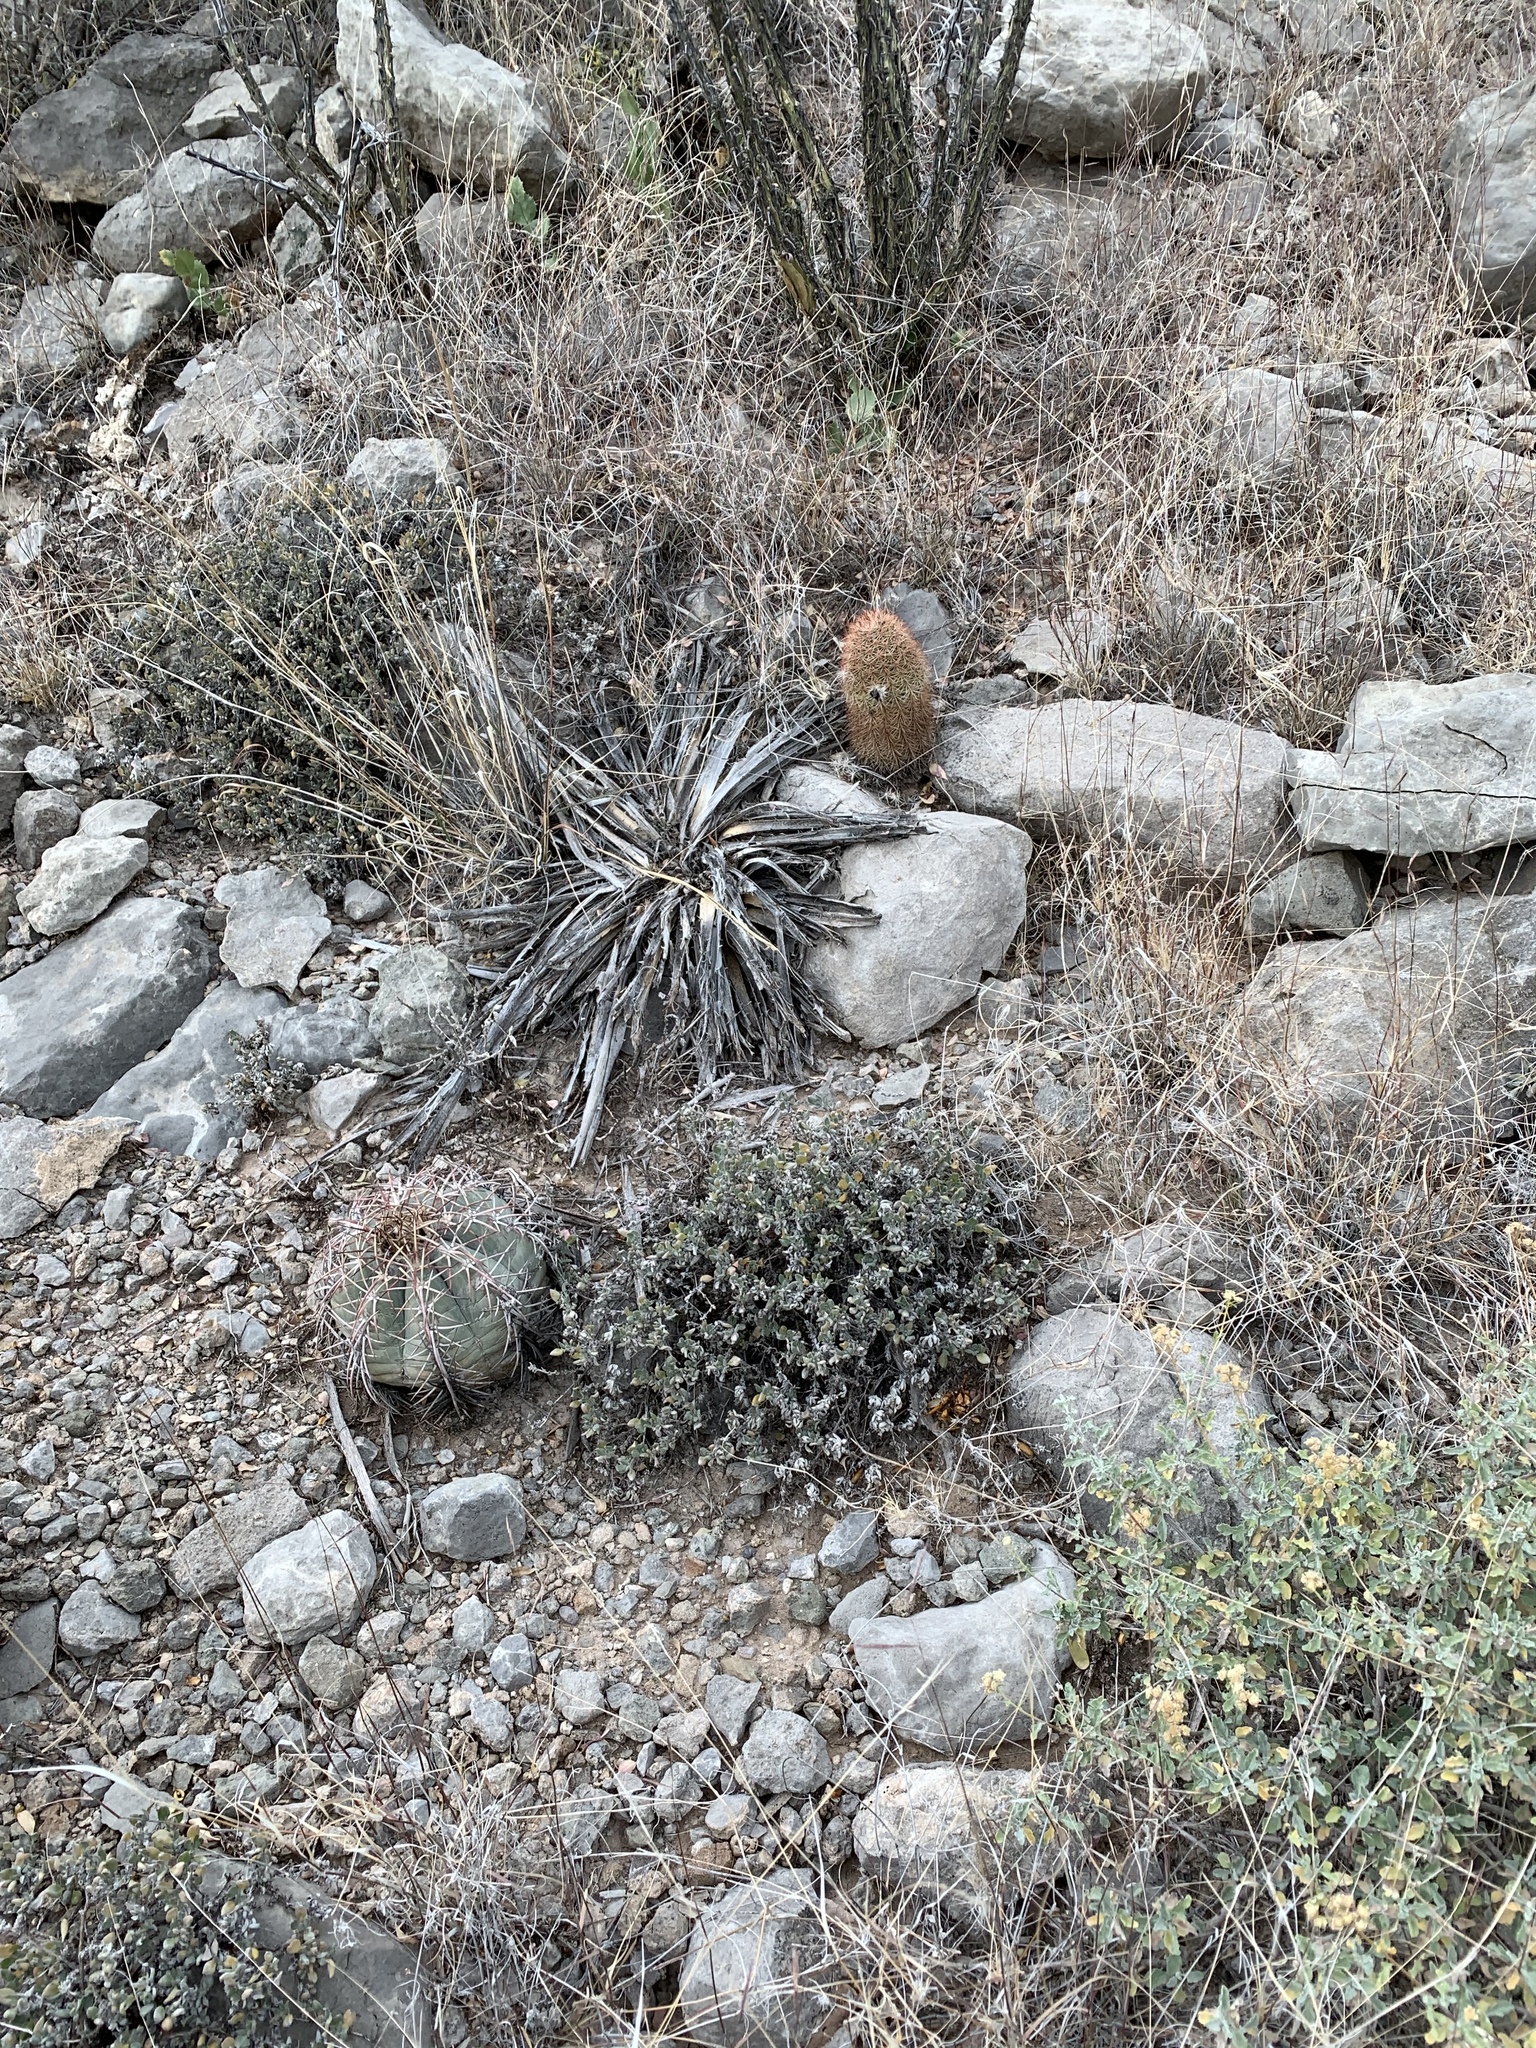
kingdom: Plantae
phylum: Tracheophyta
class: Magnoliopsida
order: Caryophyllales
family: Cactaceae
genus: Echinocereus
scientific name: Echinocereus dasyacanthus
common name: Spiny hedgehog cactus
